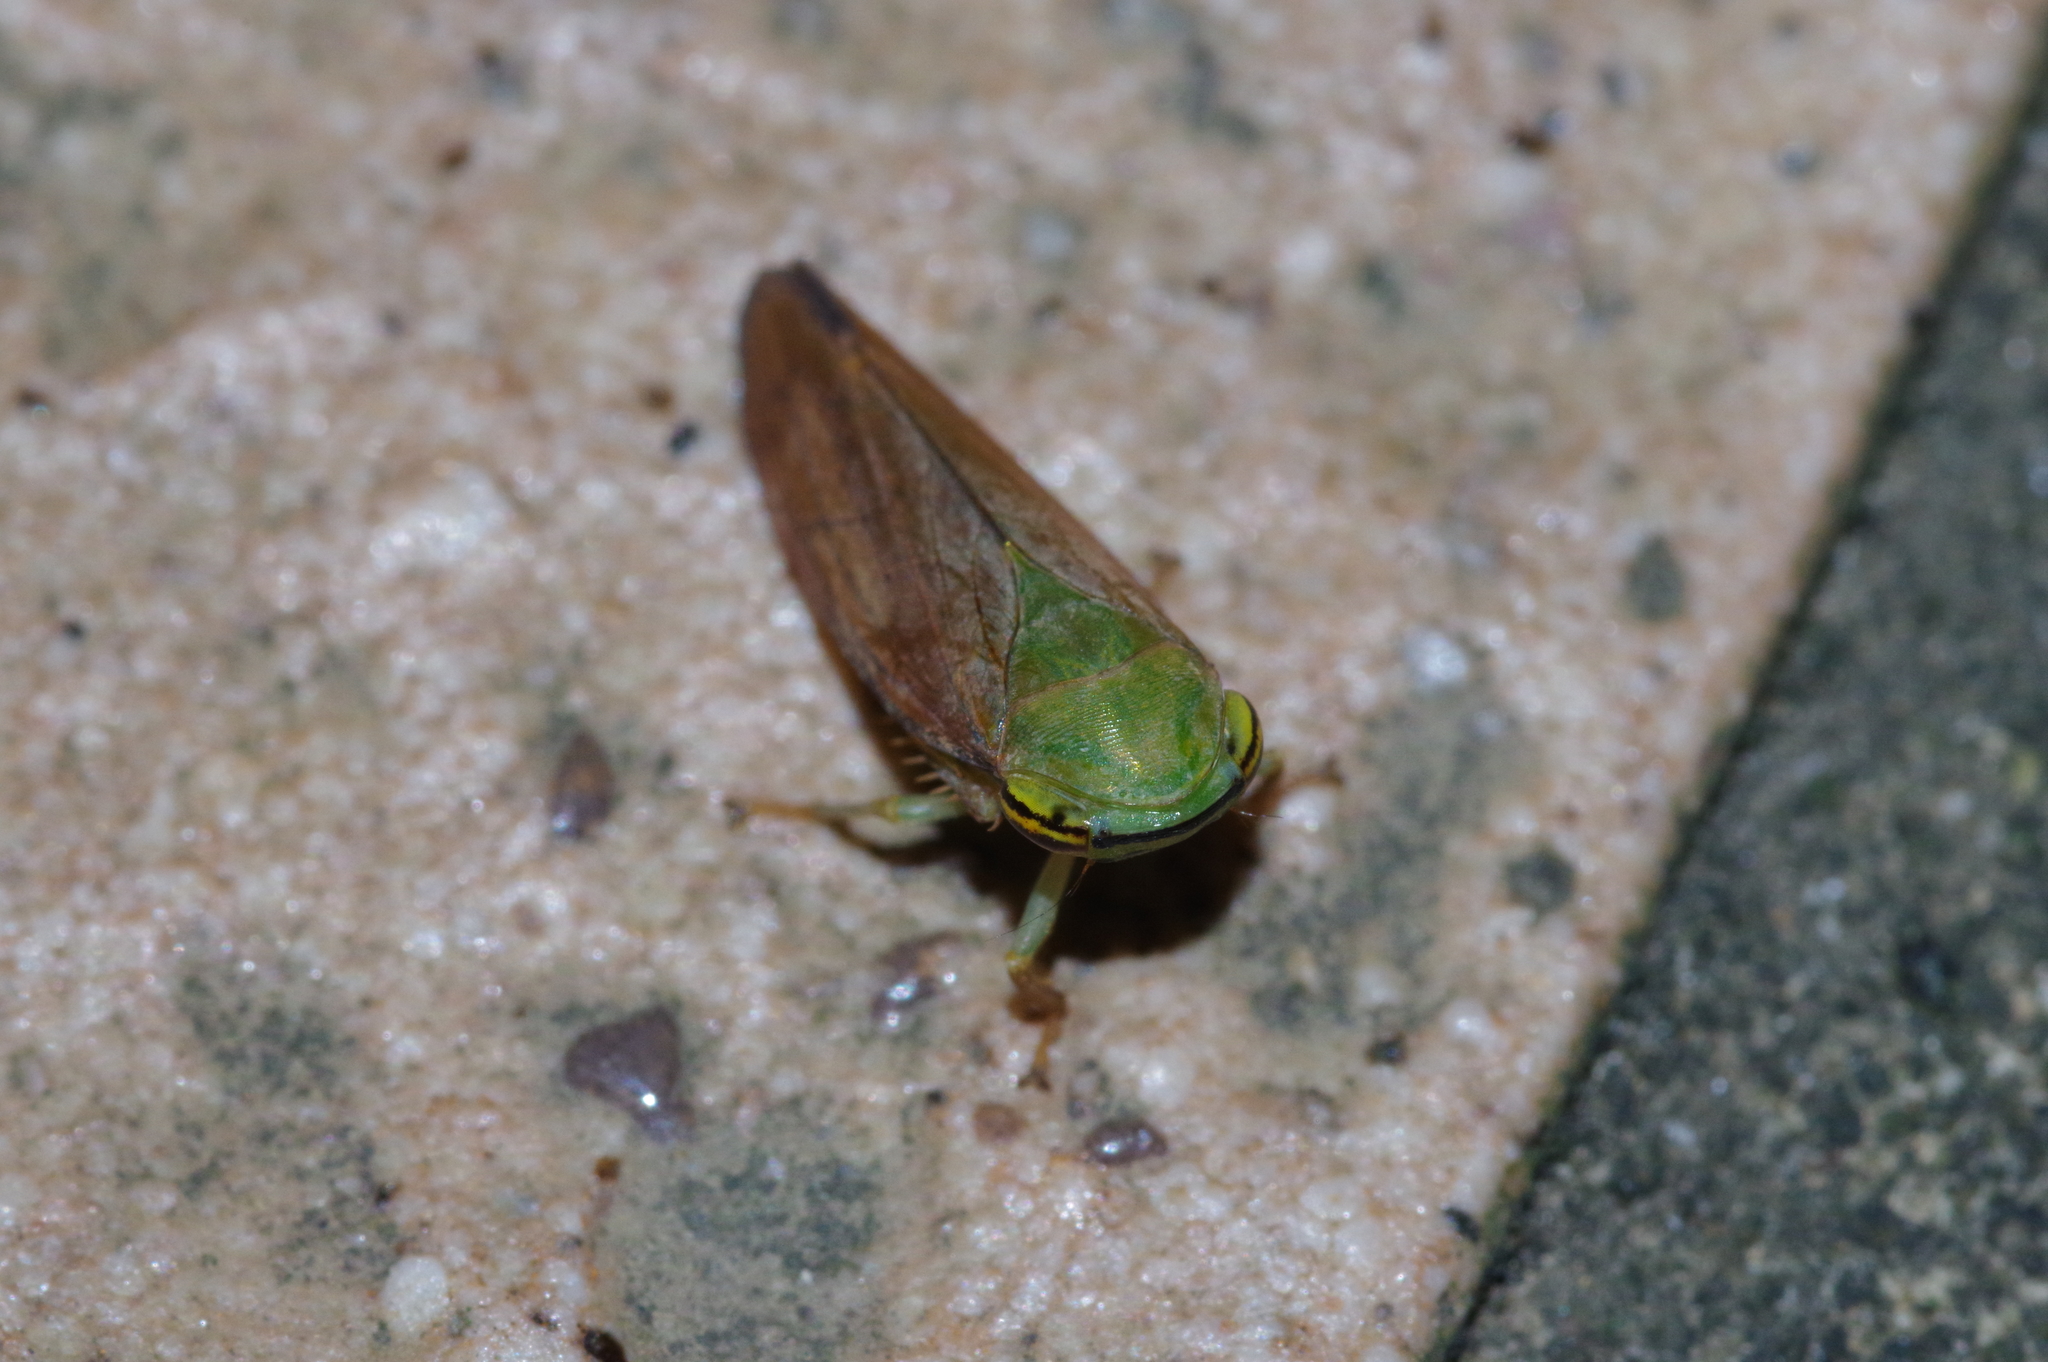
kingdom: Animalia
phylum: Arthropoda
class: Insecta
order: Hemiptera
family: Cicadellidae
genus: Tartessus
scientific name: Tartessus ferrugineus
